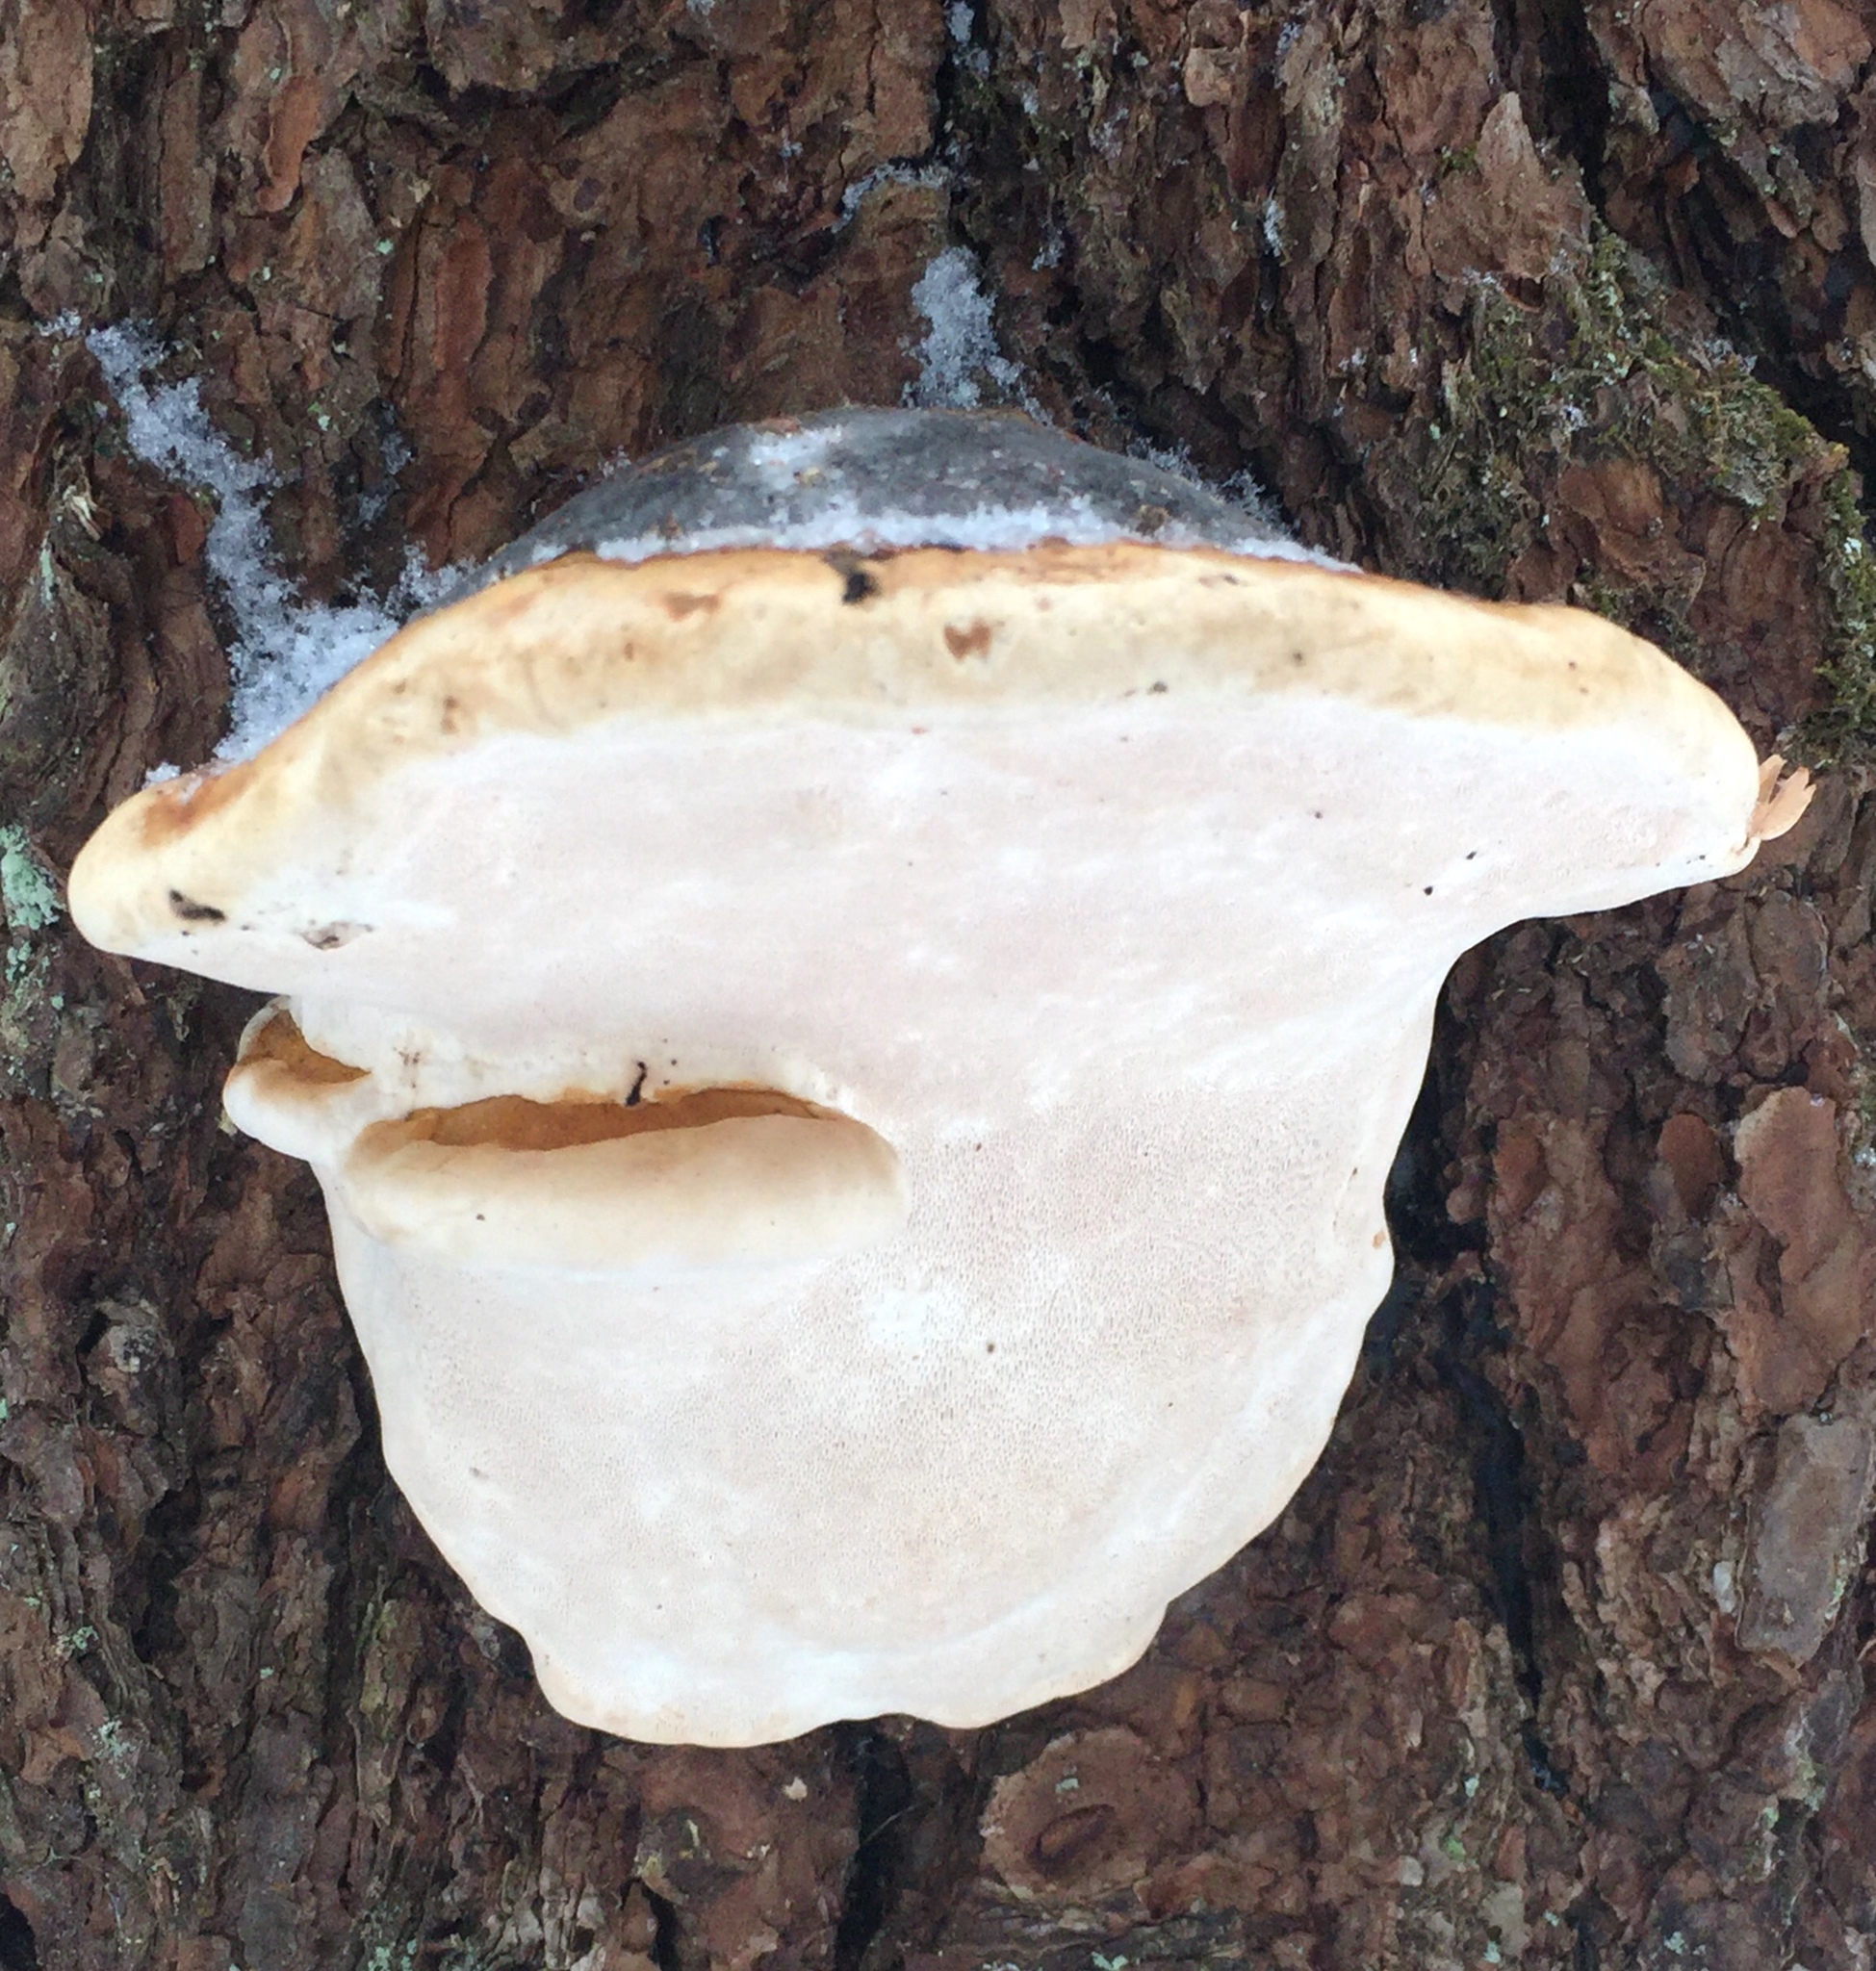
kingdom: Fungi
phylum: Basidiomycota
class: Agaricomycetes
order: Polyporales
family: Fomitopsidaceae
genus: Fomitopsis
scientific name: Fomitopsis mounceae
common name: Northern red belt
